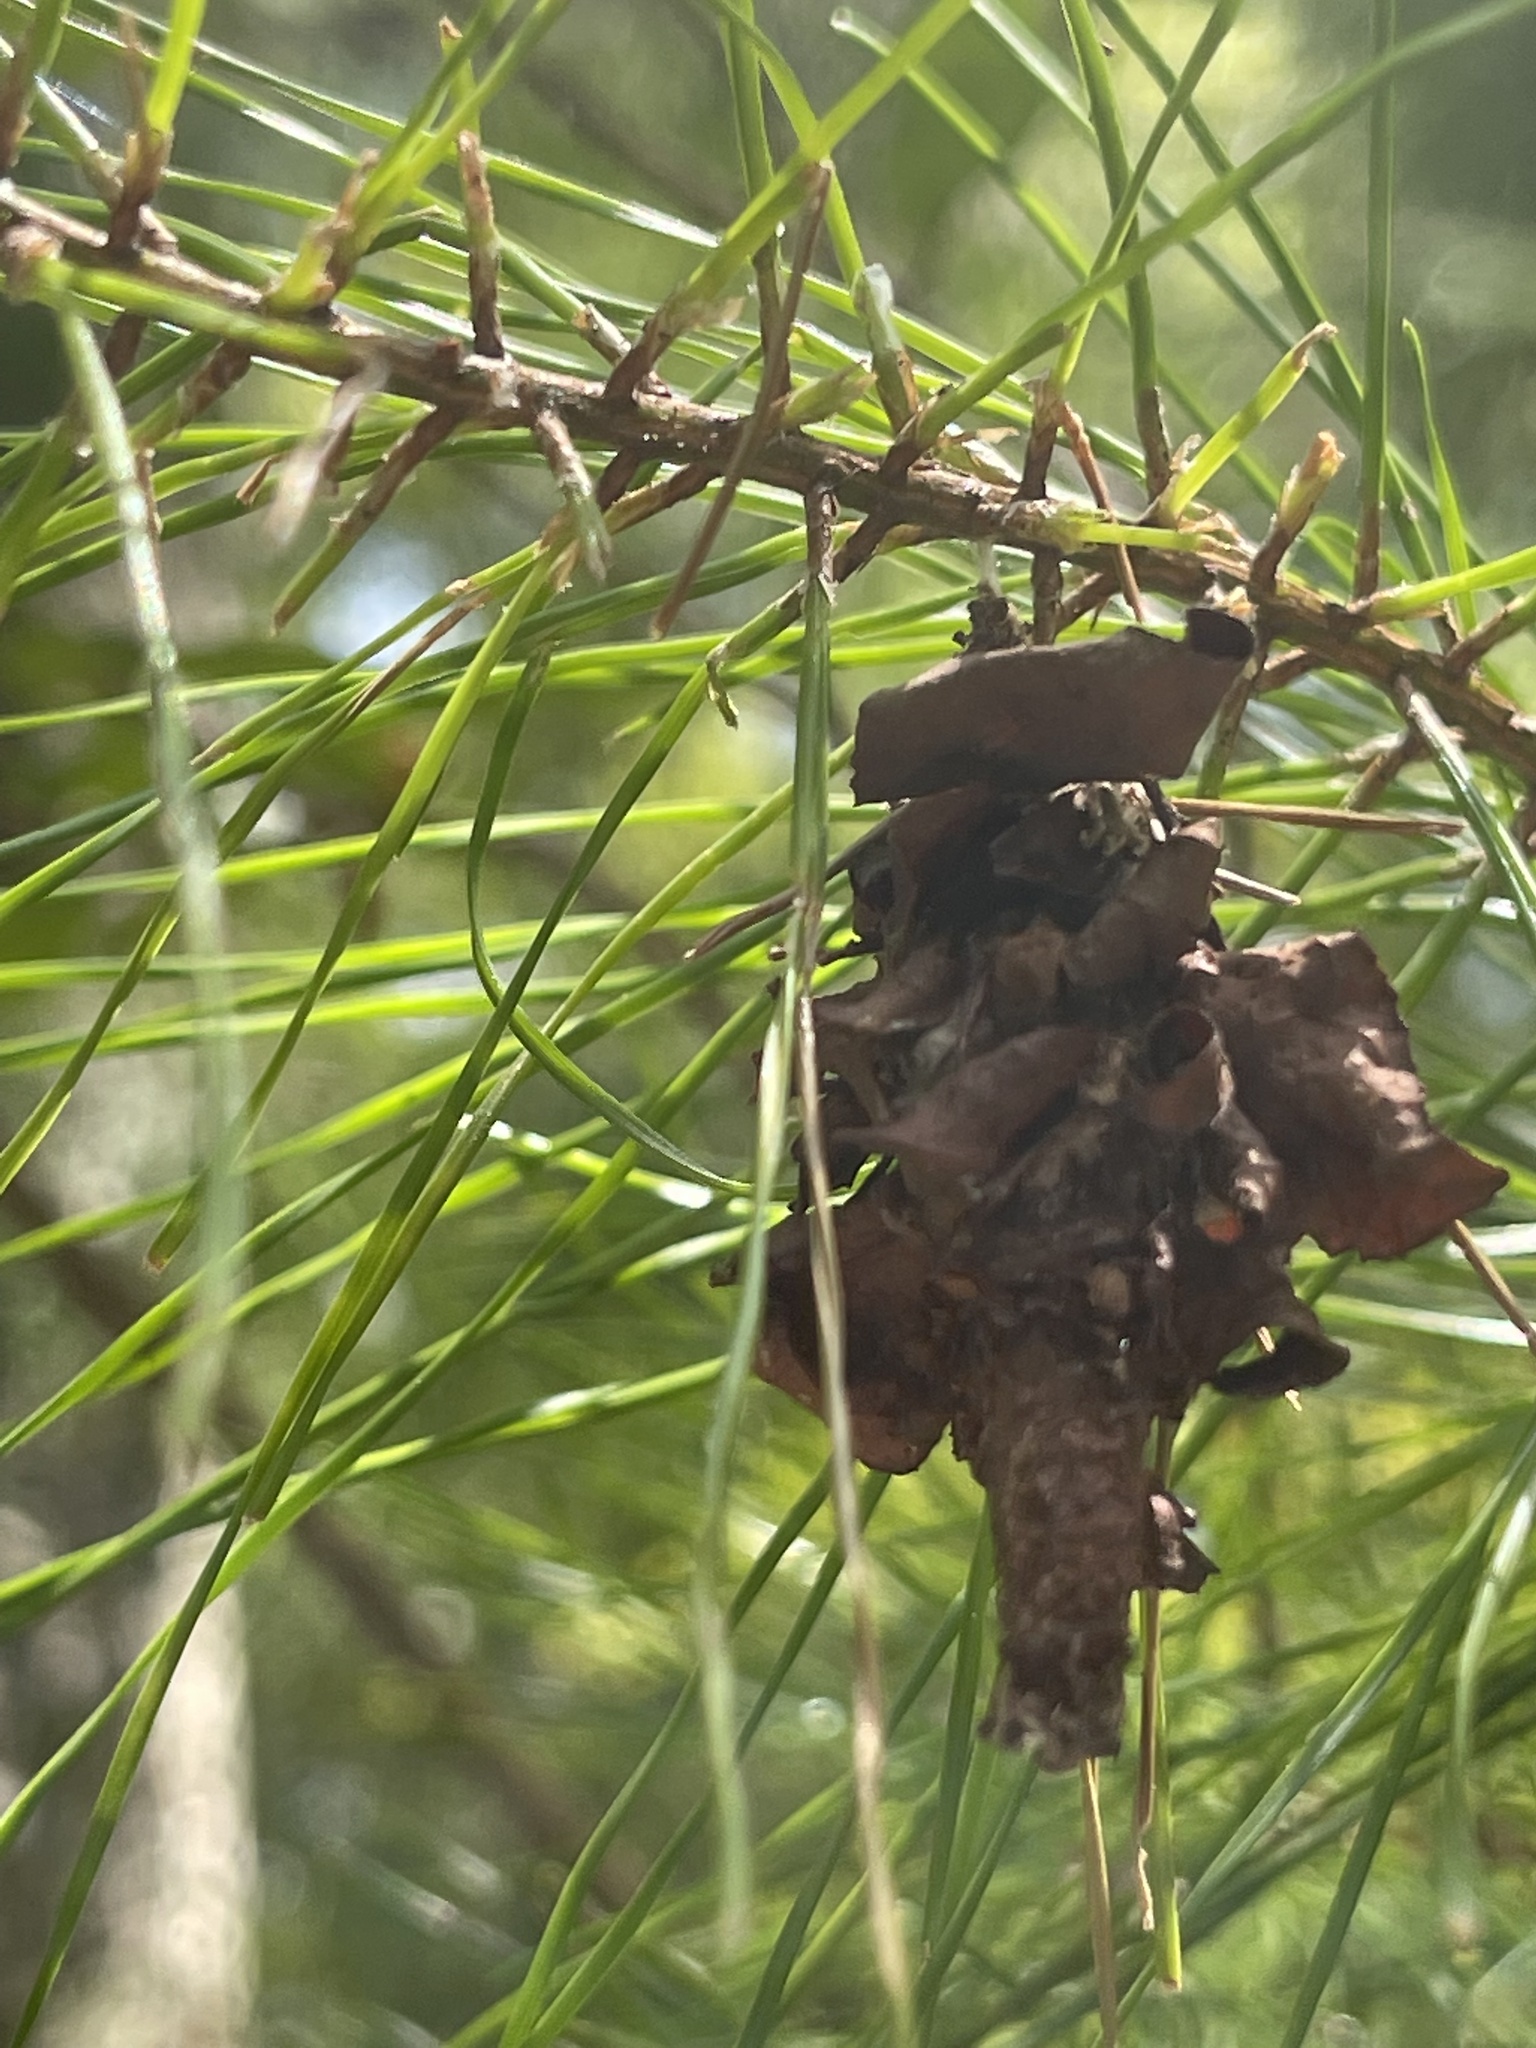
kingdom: Animalia
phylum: Arthropoda
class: Insecta
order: Lepidoptera
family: Psychidae
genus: Thyridopteryx
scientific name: Thyridopteryx ephemeraeformis
